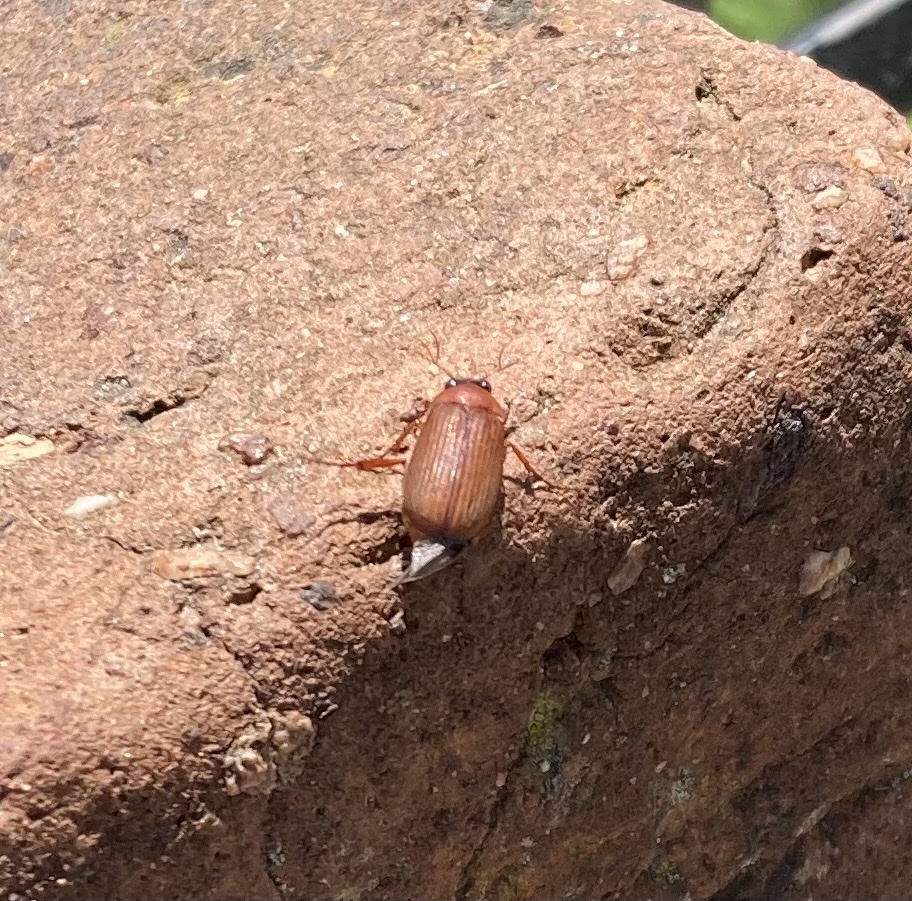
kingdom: Animalia
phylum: Arthropoda
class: Insecta
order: Coleoptera
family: Scarabaeidae
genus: Serica
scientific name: Serica brunnea
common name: Brown chafer
